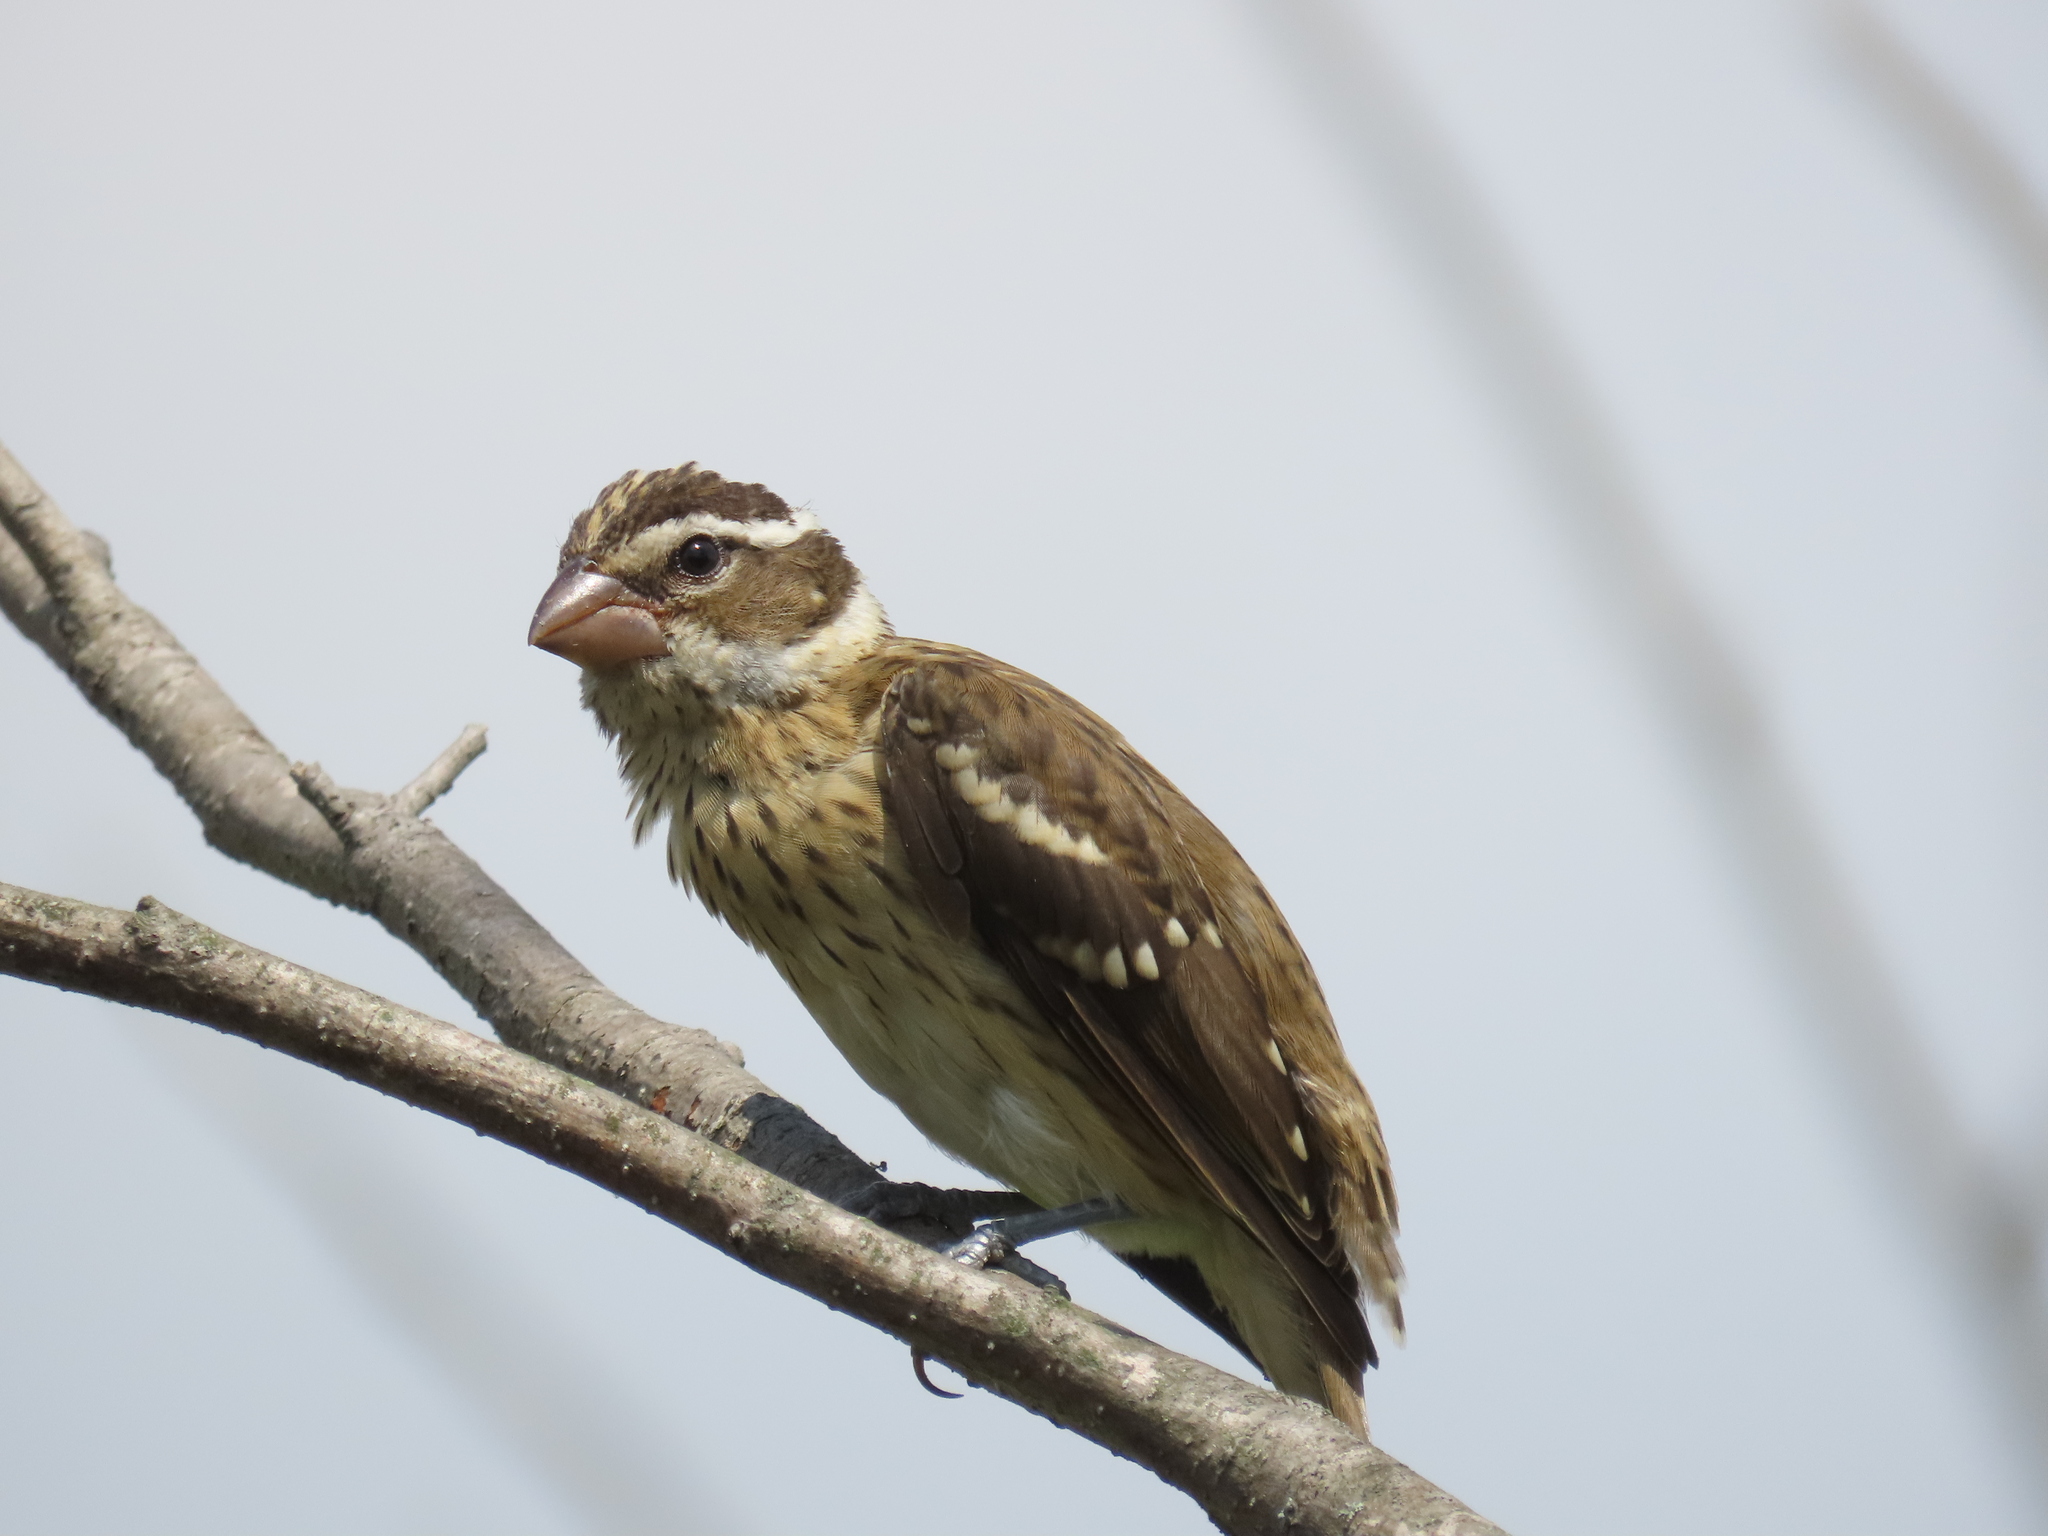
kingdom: Animalia
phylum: Chordata
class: Aves
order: Passeriformes
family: Cardinalidae
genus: Pheucticus
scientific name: Pheucticus ludovicianus
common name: Rose-breasted grosbeak
